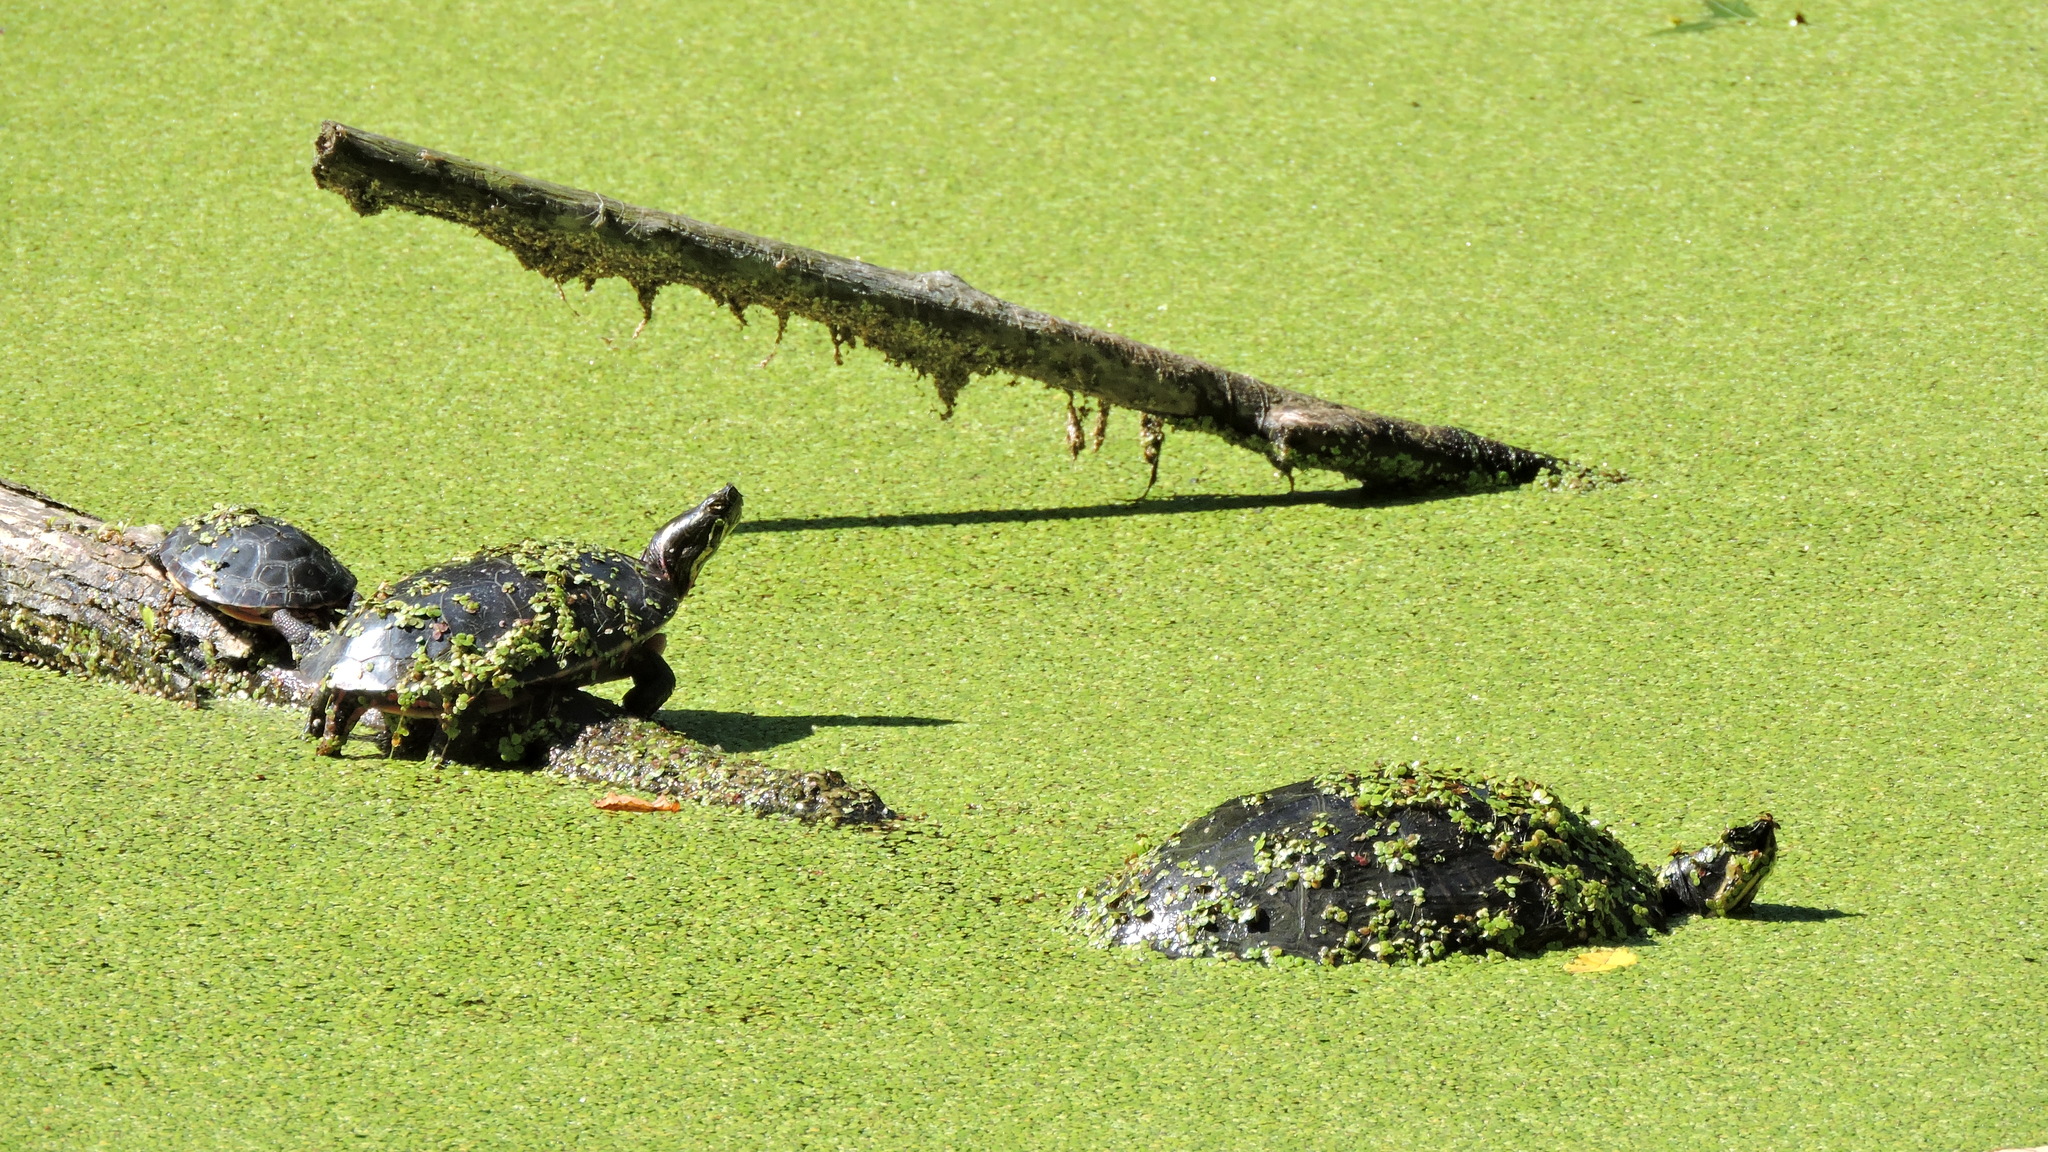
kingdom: Animalia
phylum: Chordata
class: Testudines
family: Emydidae
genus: Chrysemys
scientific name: Chrysemys picta
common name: Painted turtle
